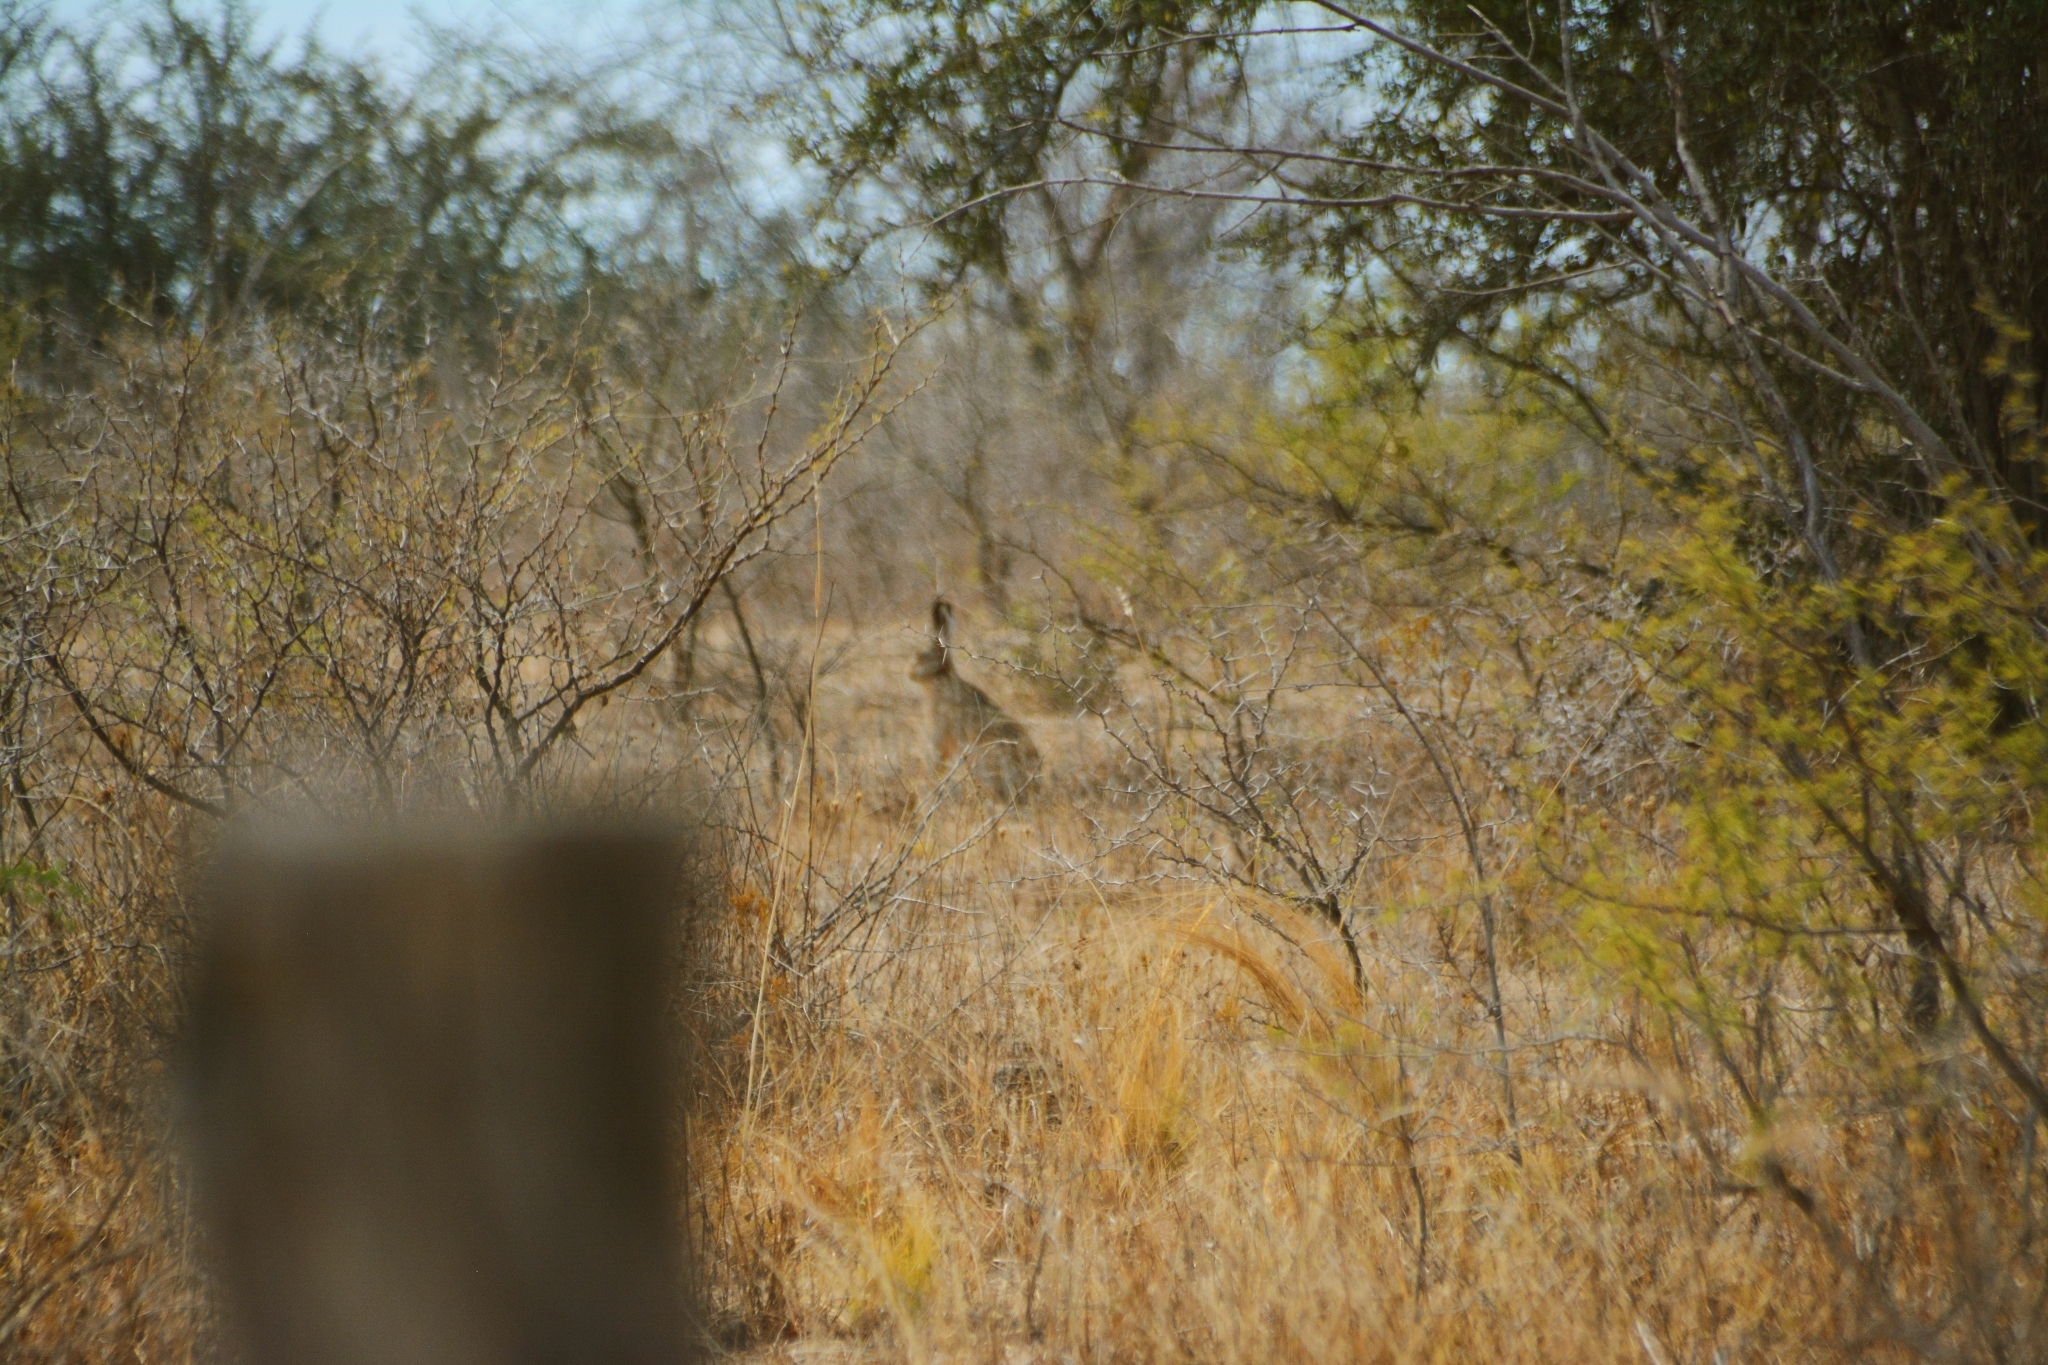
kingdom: Animalia
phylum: Chordata
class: Mammalia
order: Lagomorpha
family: Leporidae
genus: Lepus
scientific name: Lepus europaeus
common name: European hare
